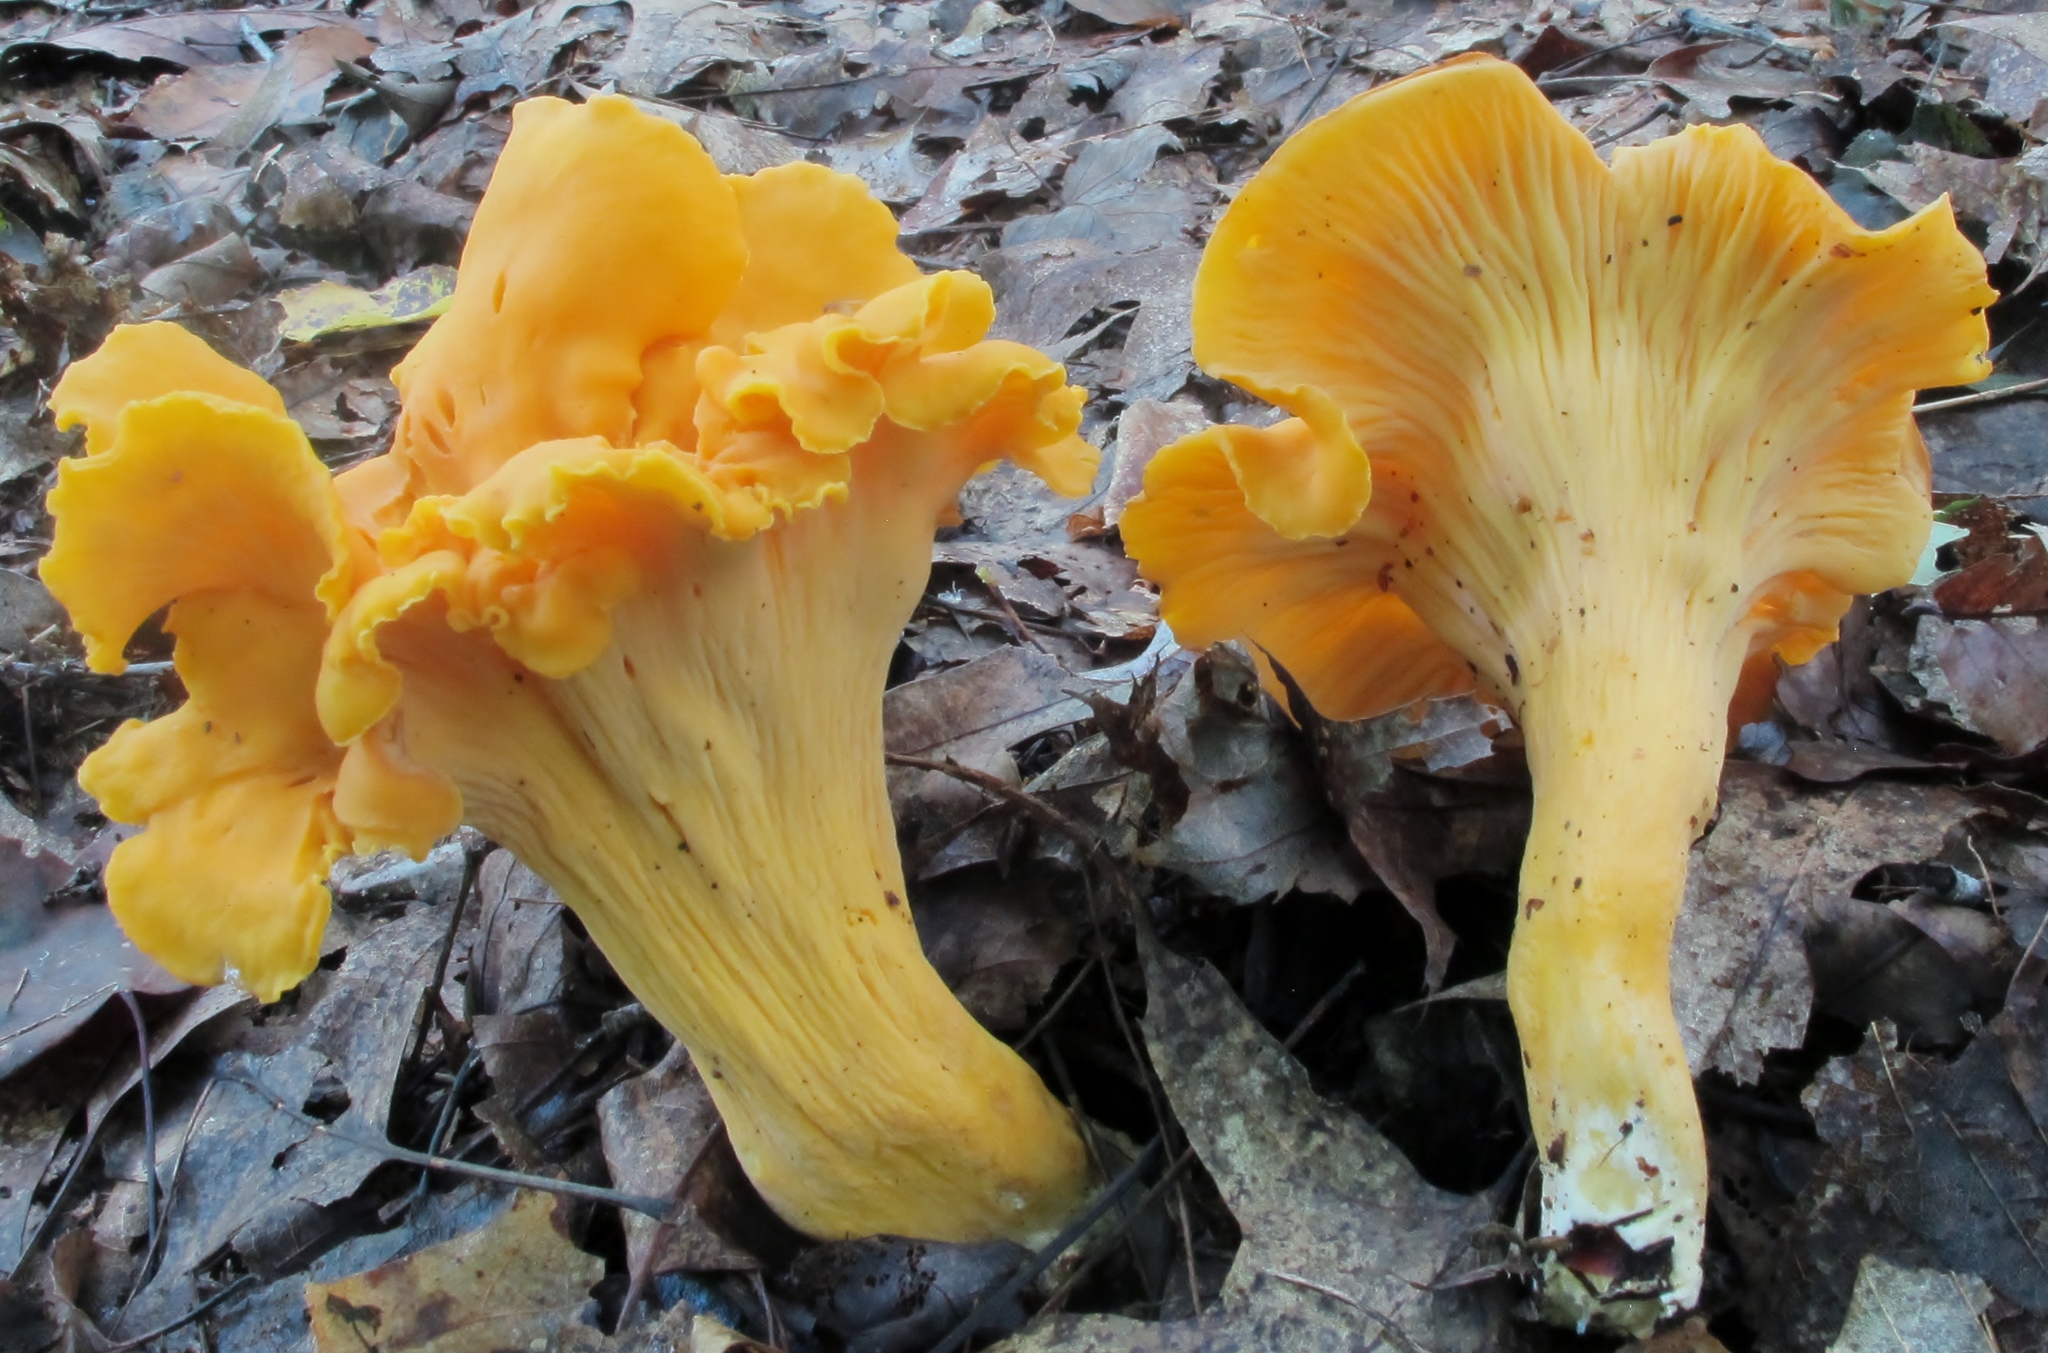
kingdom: Fungi
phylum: Basidiomycota
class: Agaricomycetes
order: Cantharellales
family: Hydnaceae
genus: Cantharellus
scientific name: Cantharellus lateritius
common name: Smooth chanterelle
